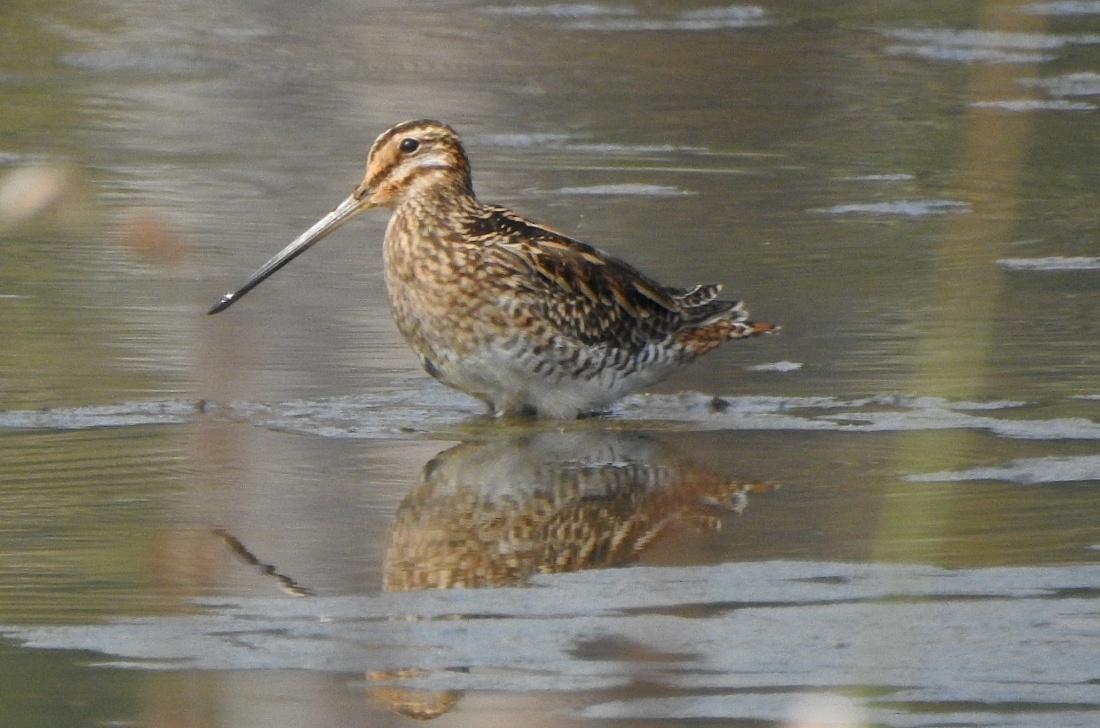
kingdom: Animalia
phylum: Chordata
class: Aves
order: Charadriiformes
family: Scolopacidae
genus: Gallinago
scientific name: Gallinago gallinago
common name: Common snipe
